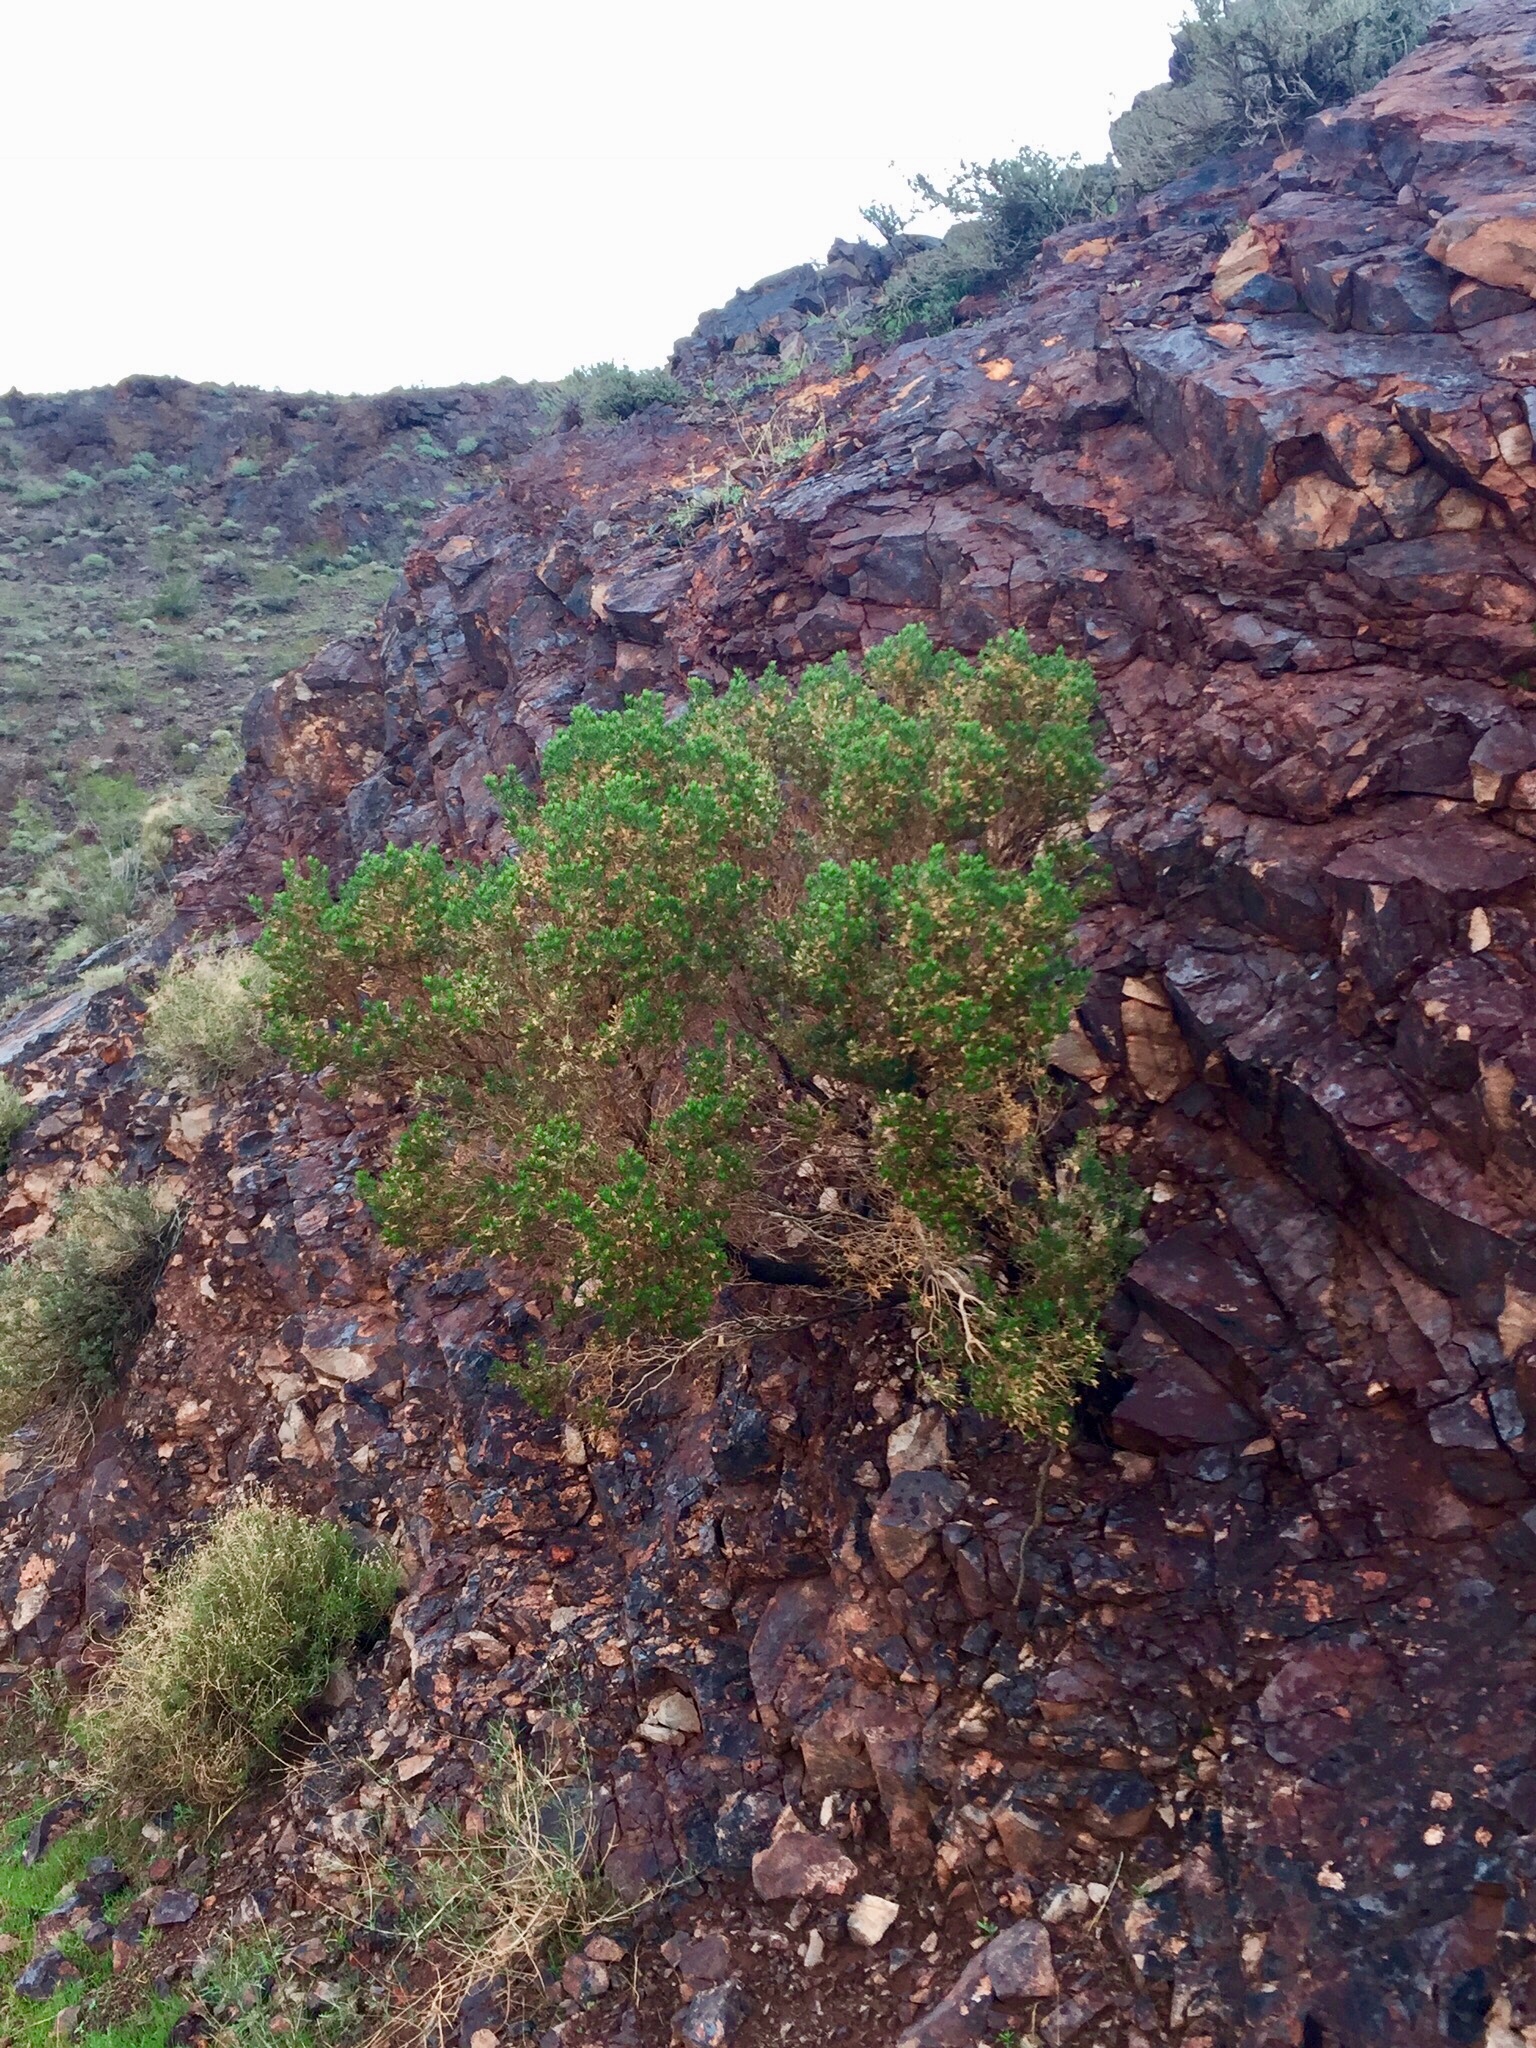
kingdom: Plantae
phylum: Tracheophyta
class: Magnoliopsida
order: Asterales
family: Asteraceae
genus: Peucephyllum
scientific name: Peucephyllum schottii
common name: Pygmy-cedar
